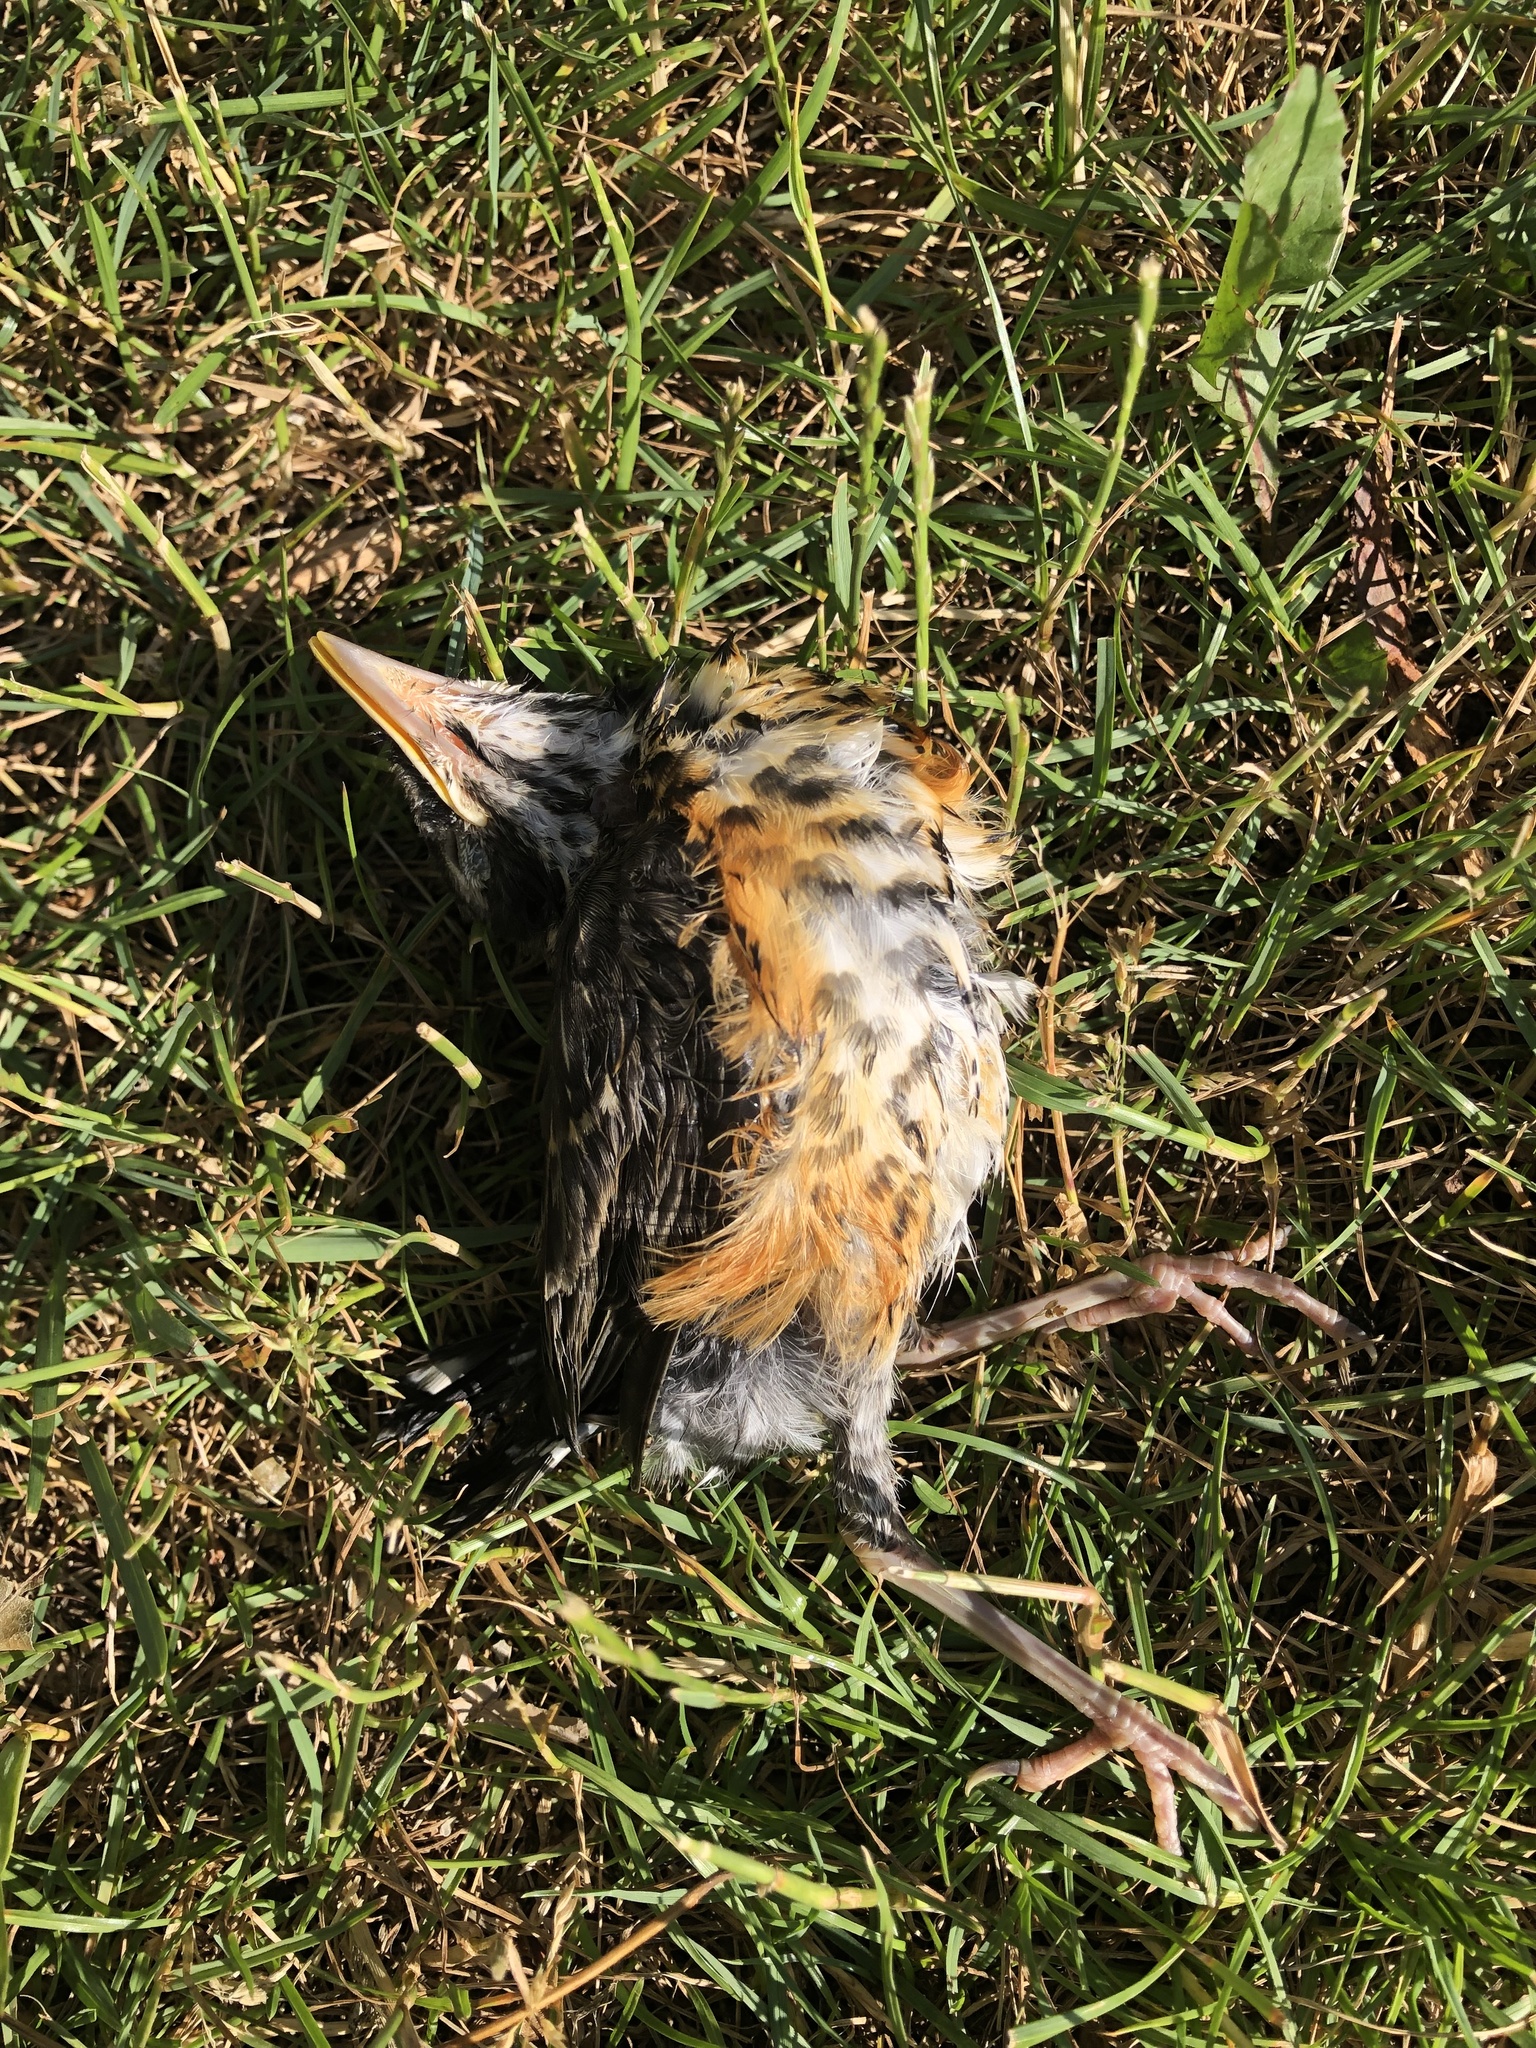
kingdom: Animalia
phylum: Chordata
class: Aves
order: Passeriformes
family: Turdidae
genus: Turdus
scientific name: Turdus migratorius
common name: American robin
